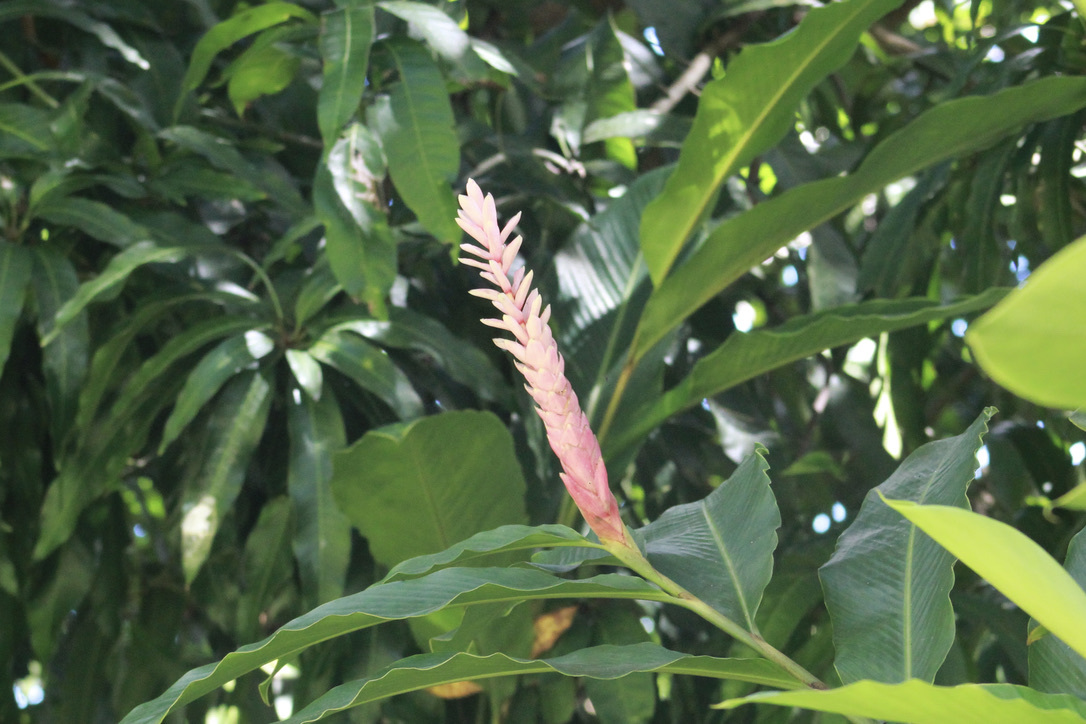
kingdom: Plantae
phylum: Tracheophyta
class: Liliopsida
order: Zingiberales
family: Zingiberaceae
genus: Alpinia
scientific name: Alpinia purpurata
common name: Red ginger
